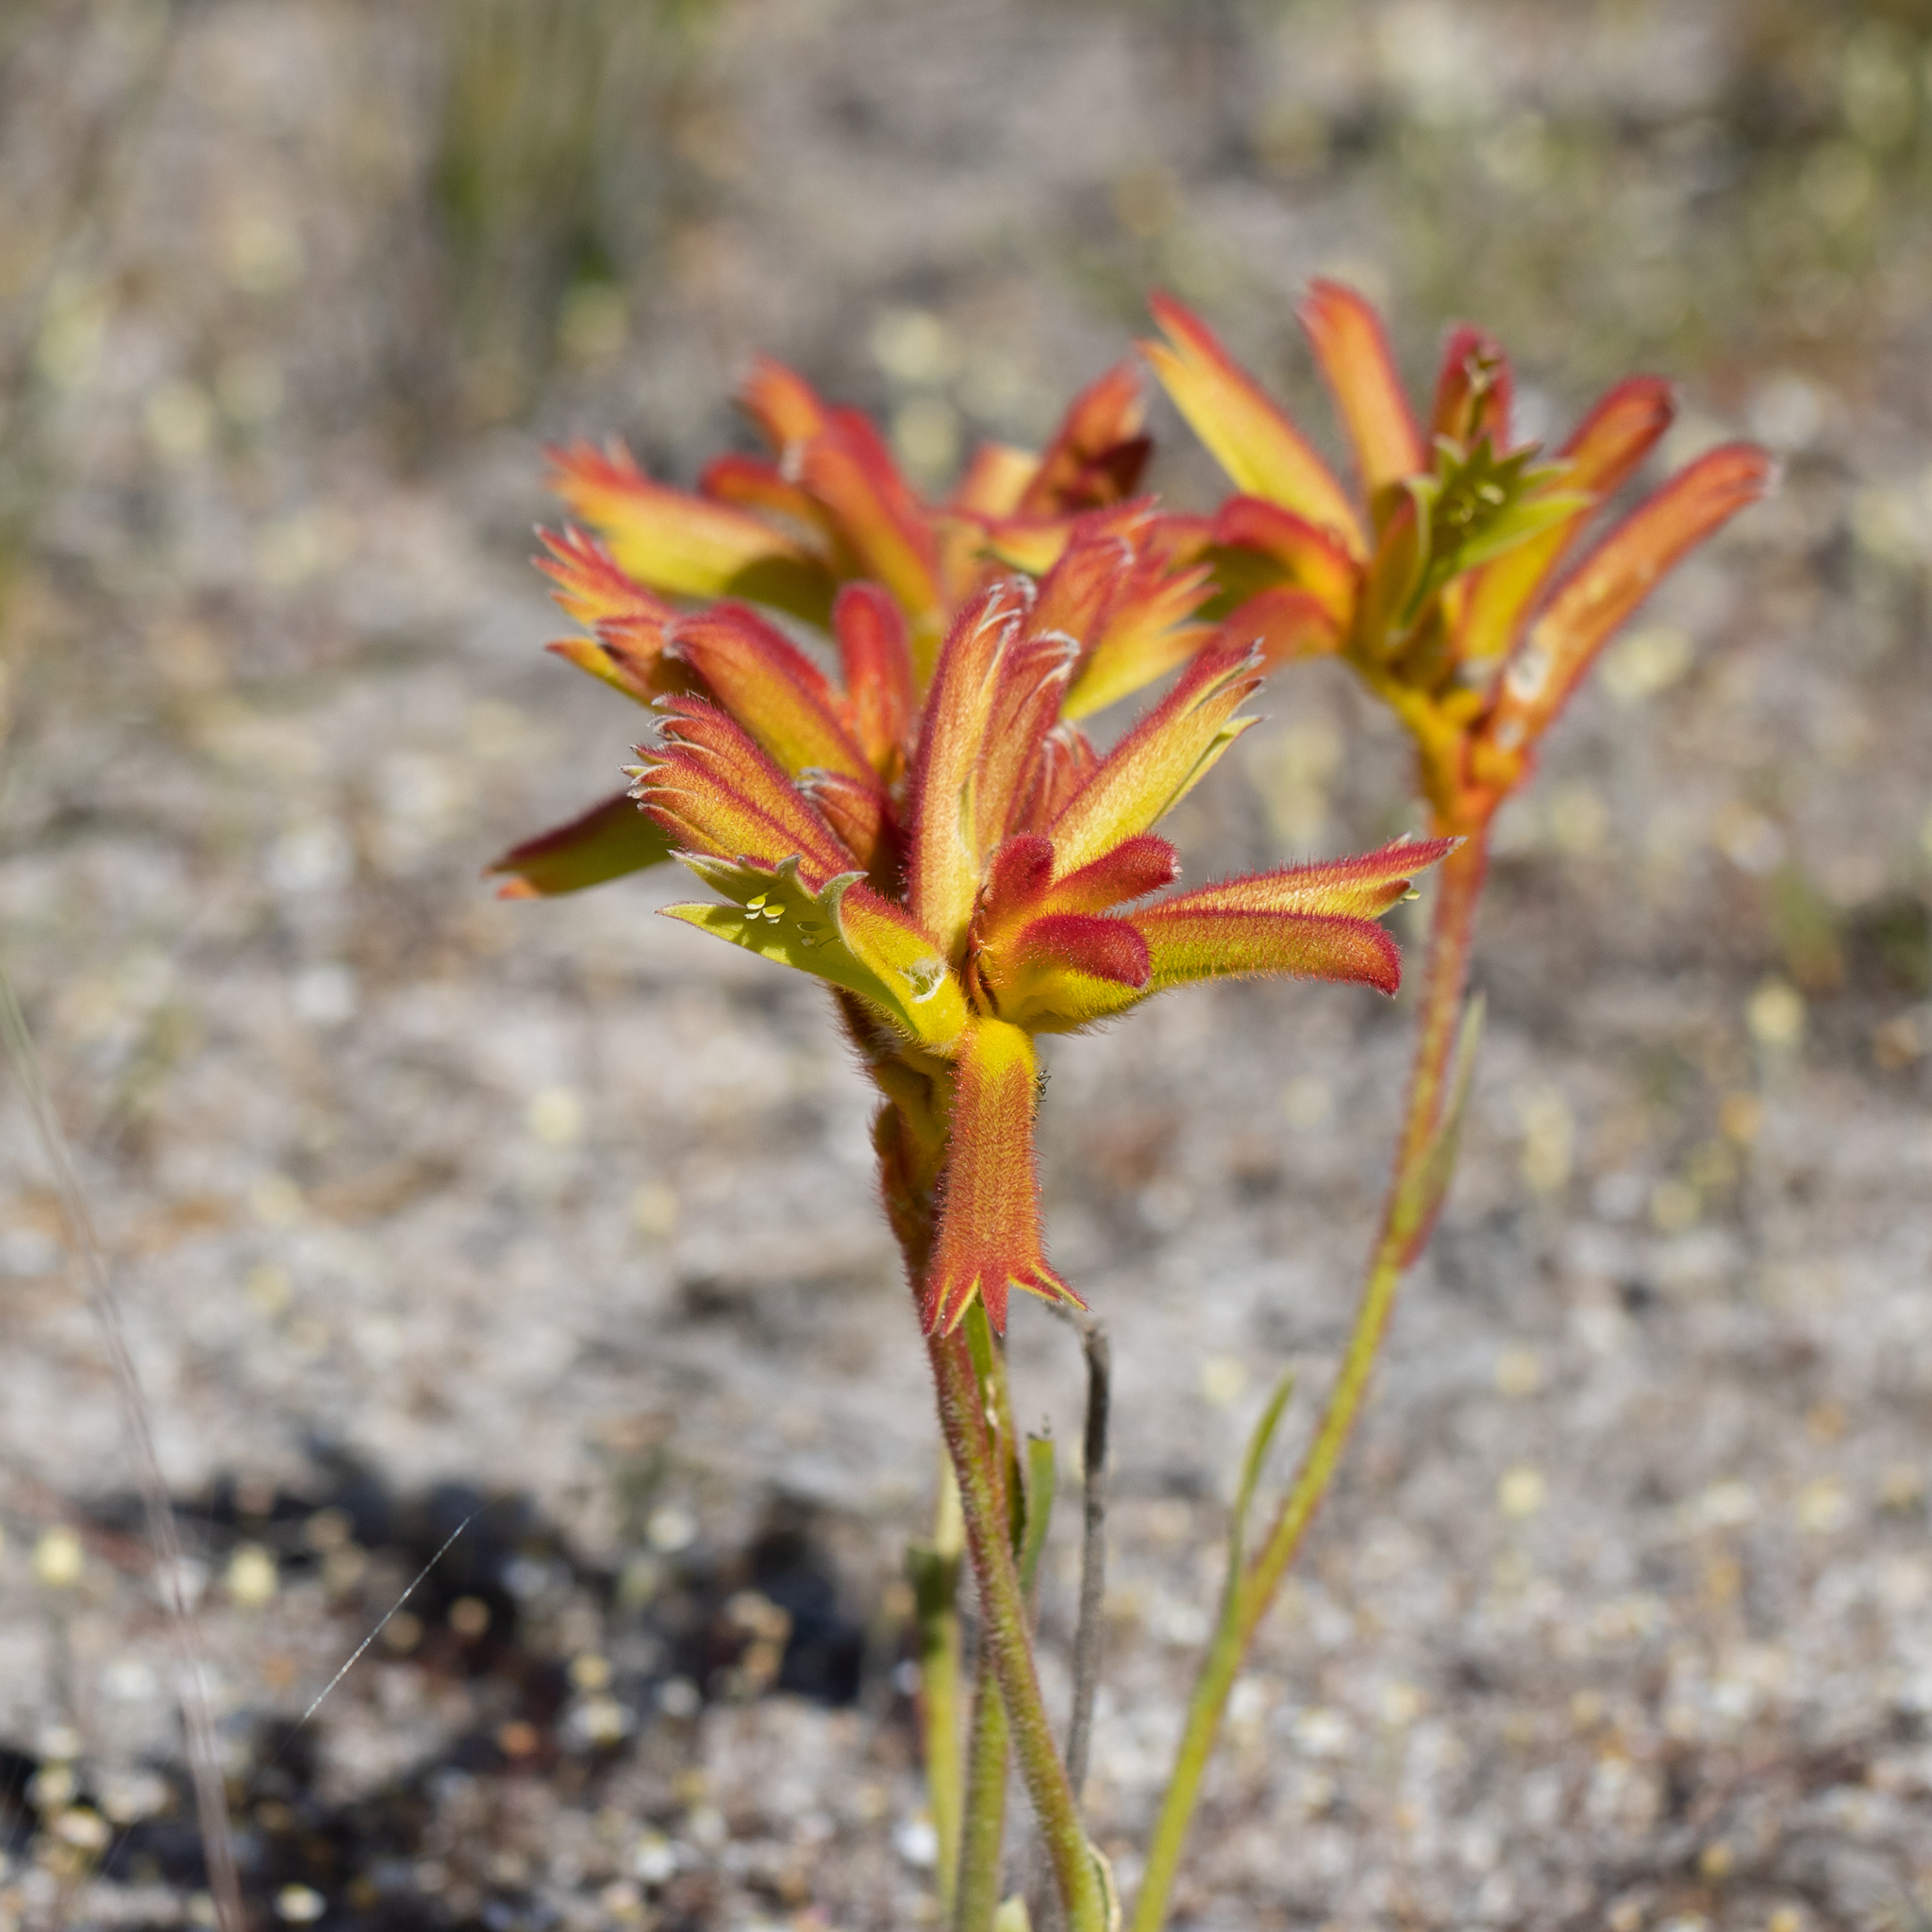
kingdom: Plantae
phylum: Tracheophyta
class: Liliopsida
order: Commelinales
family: Haemodoraceae
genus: Anigozanthos
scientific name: Anigozanthos humilis
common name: Cat's-paw
